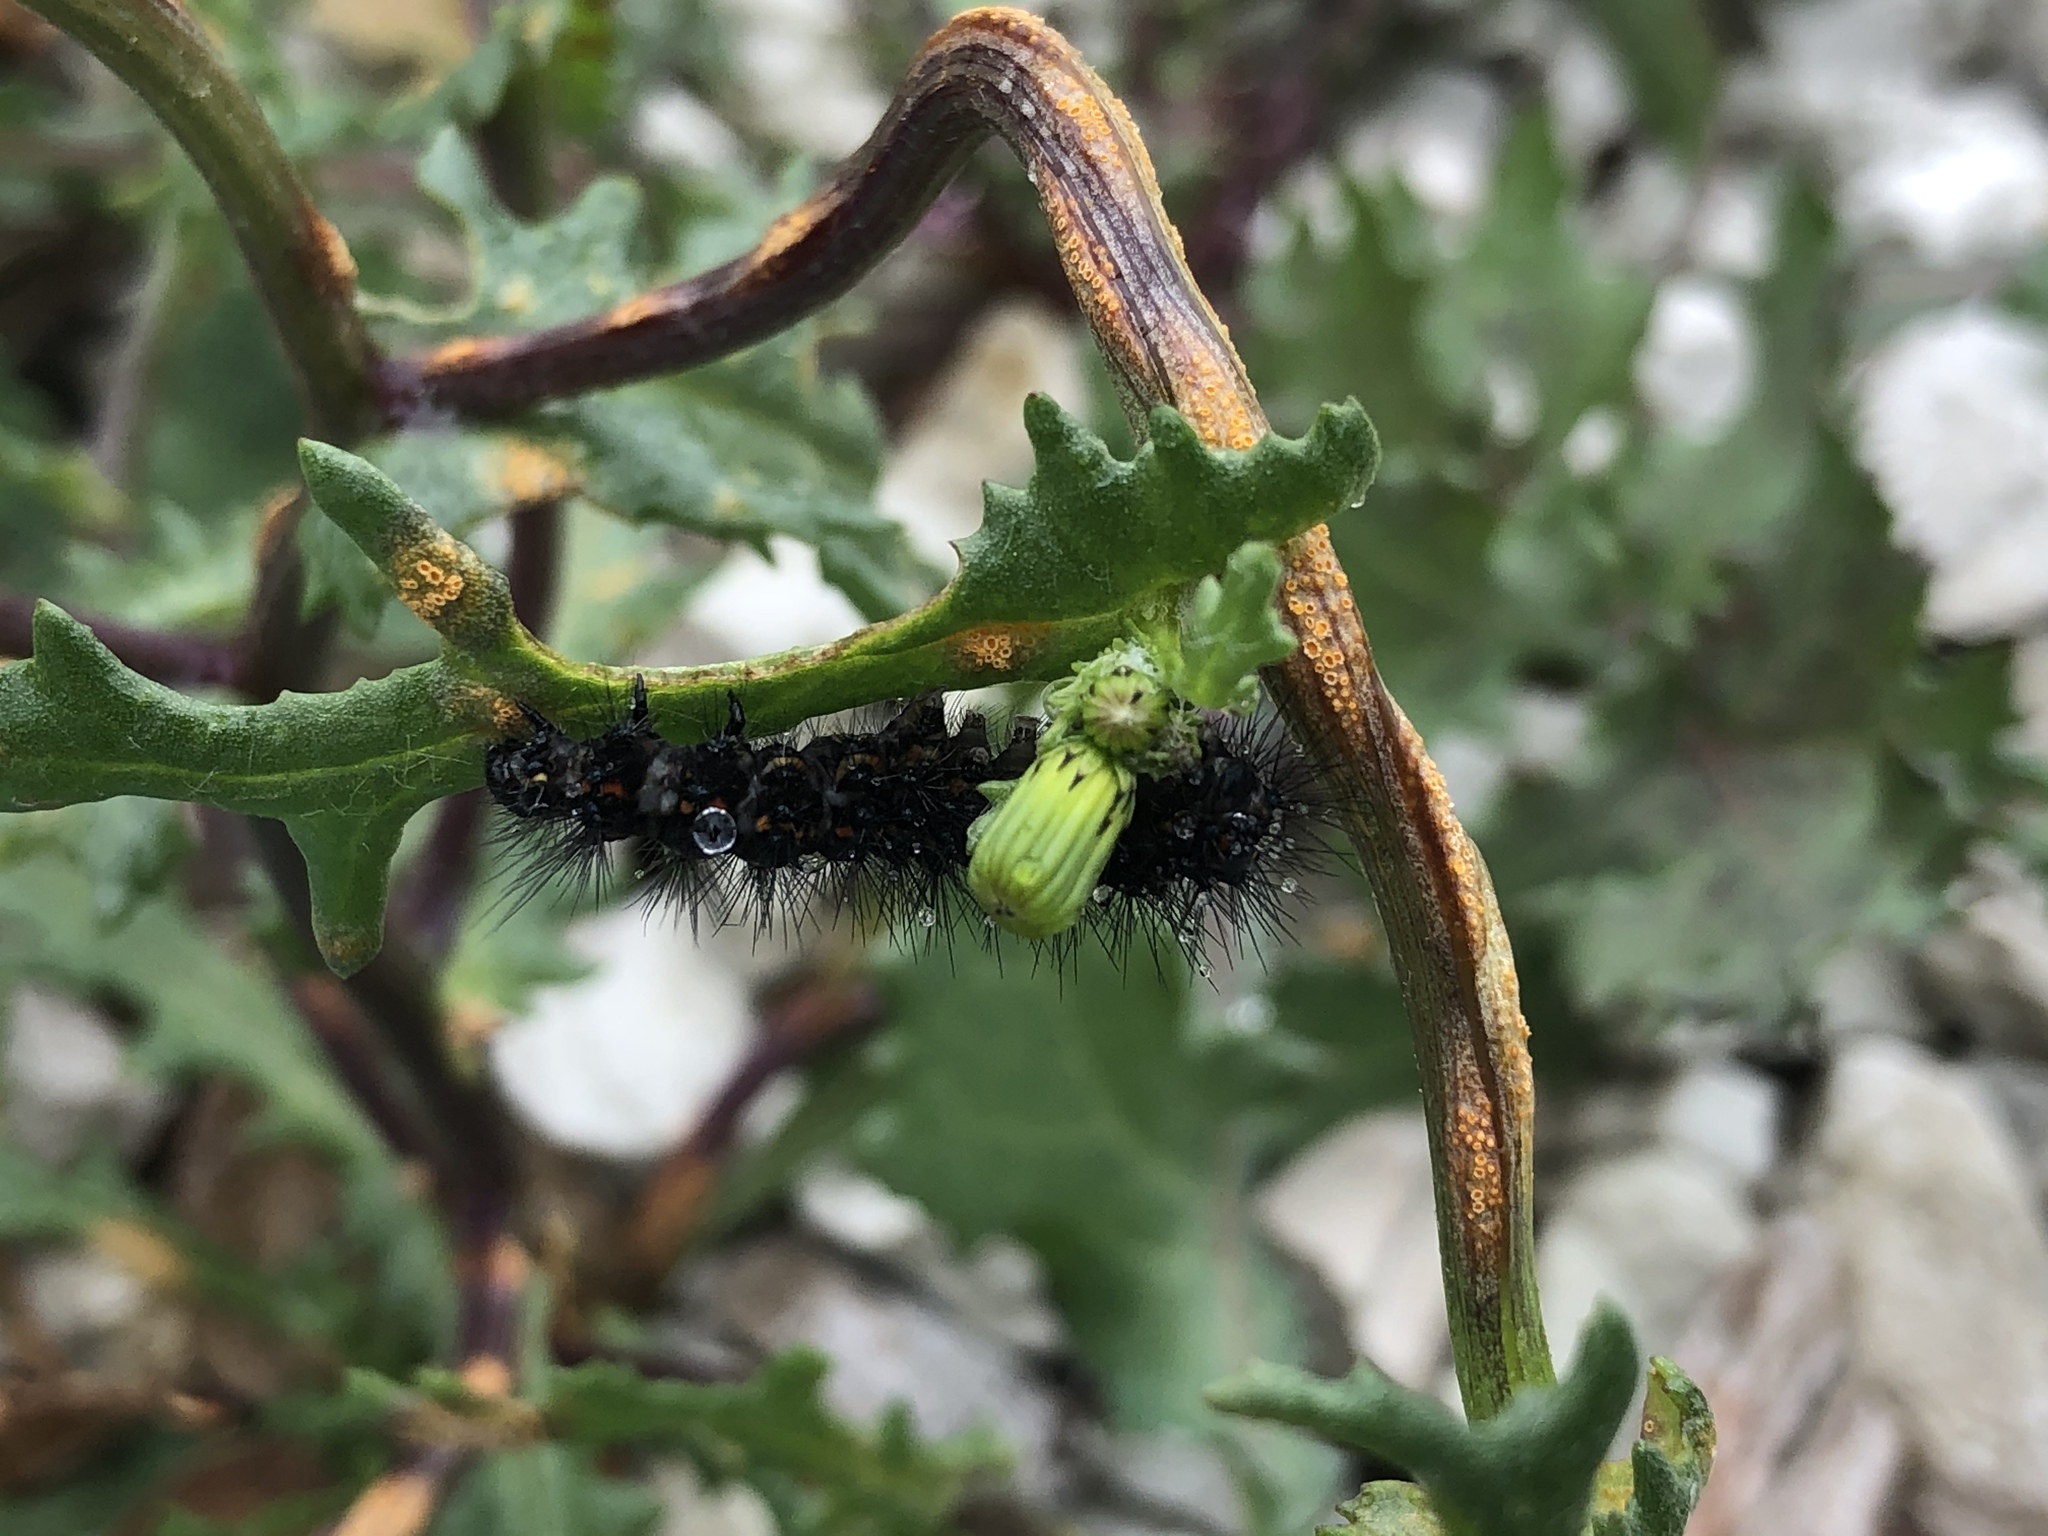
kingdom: Fungi
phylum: Basidiomycota
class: Pucciniomycetes
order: Pucciniales
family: Pucciniaceae
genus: Puccinia
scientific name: Puccinia lagenophorae
